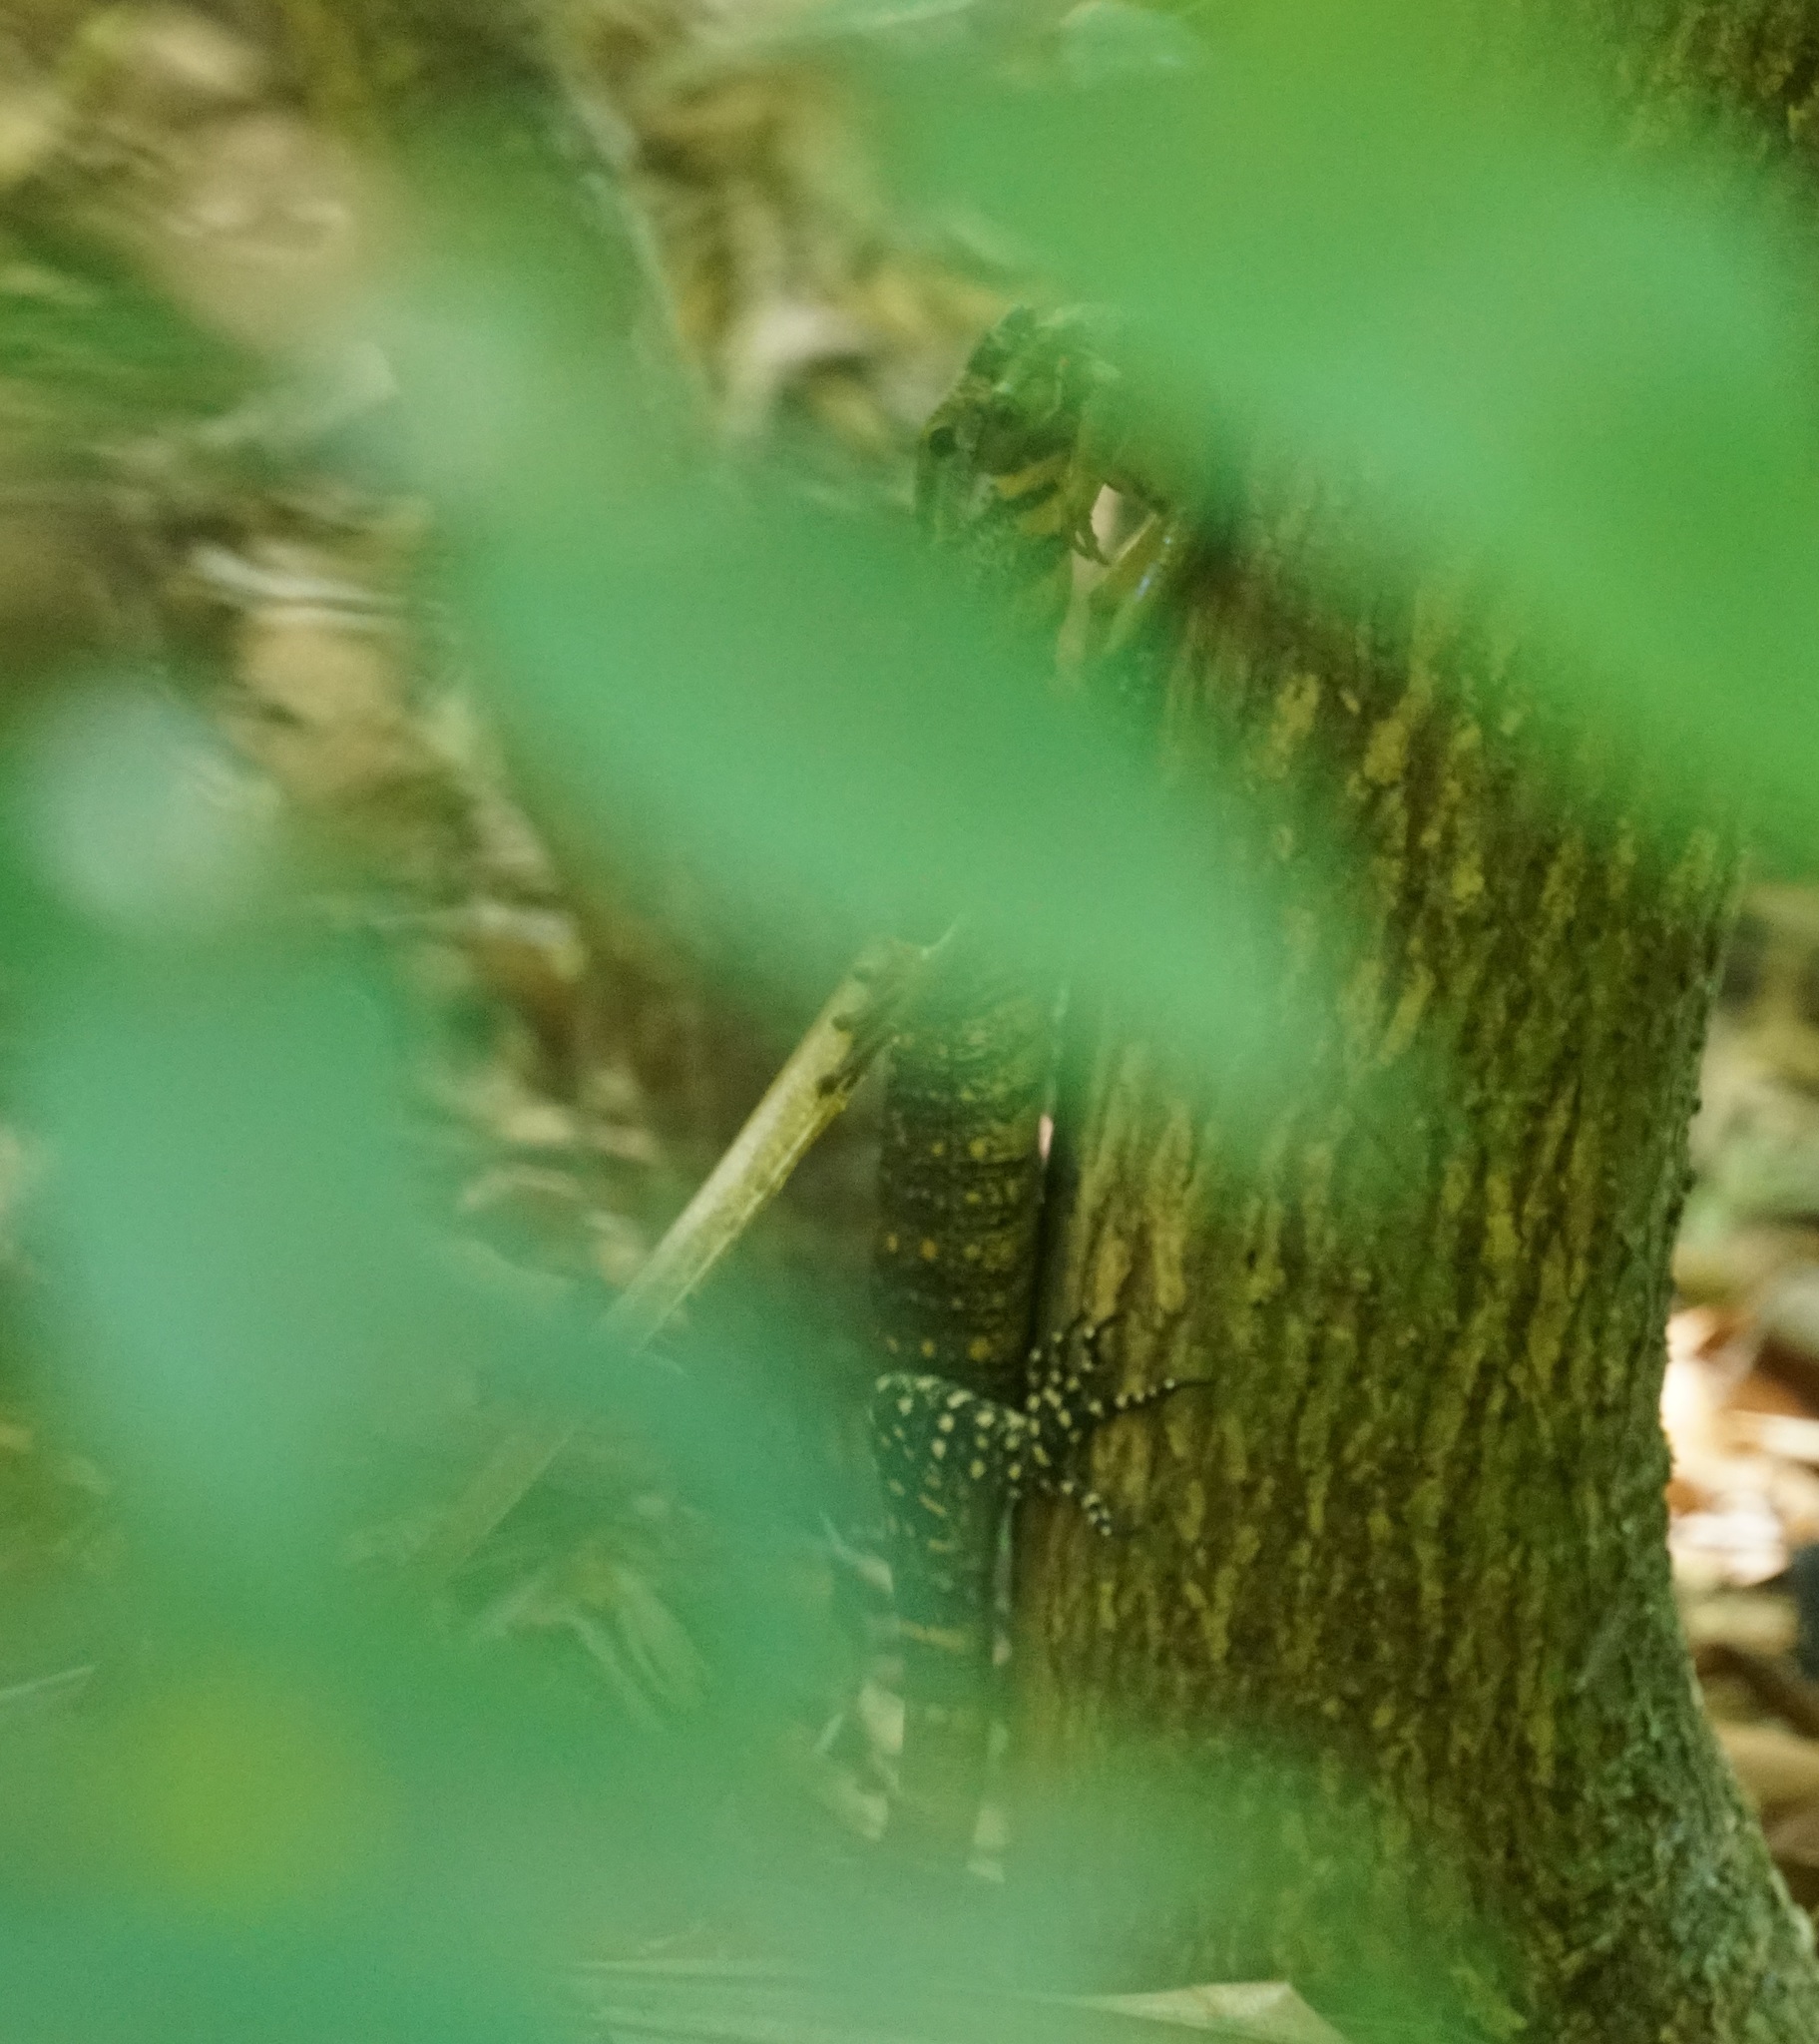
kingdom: Animalia
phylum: Chordata
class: Amphibia
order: Anura
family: Pelodryadidae
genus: Nyctimystes
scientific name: Nyctimystes infrafrenatus
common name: Australian giant treefrog
